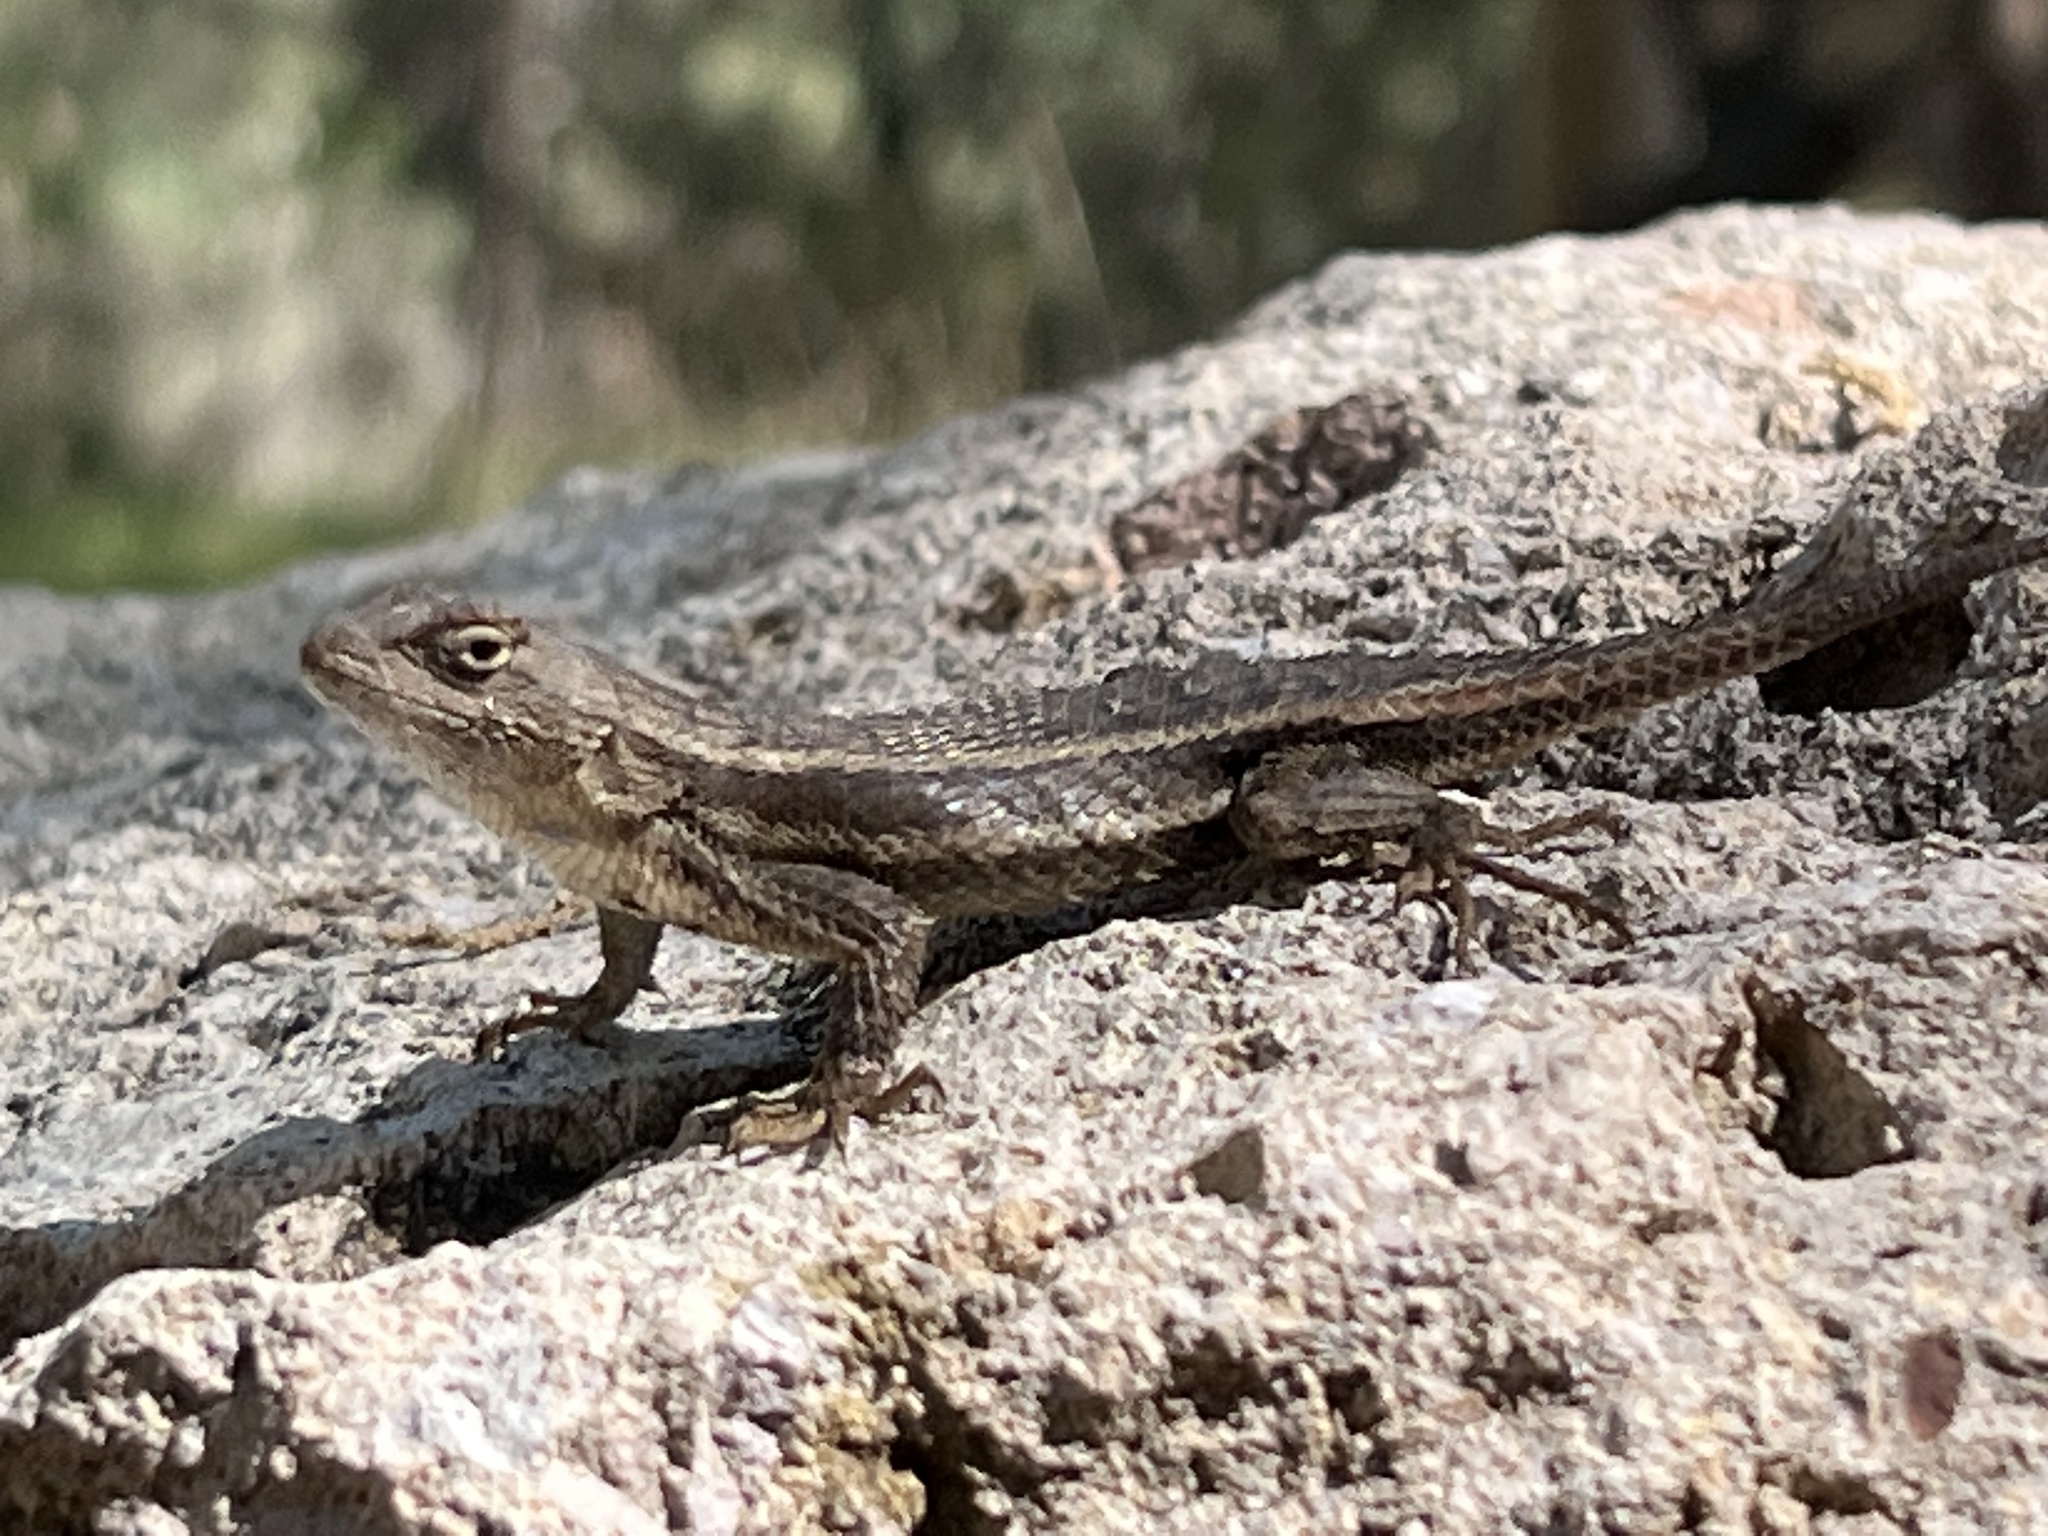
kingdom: Animalia
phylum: Chordata
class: Squamata
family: Phrynosomatidae
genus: Sceloporus
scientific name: Sceloporus virgatus
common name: Striped plateau lizard
